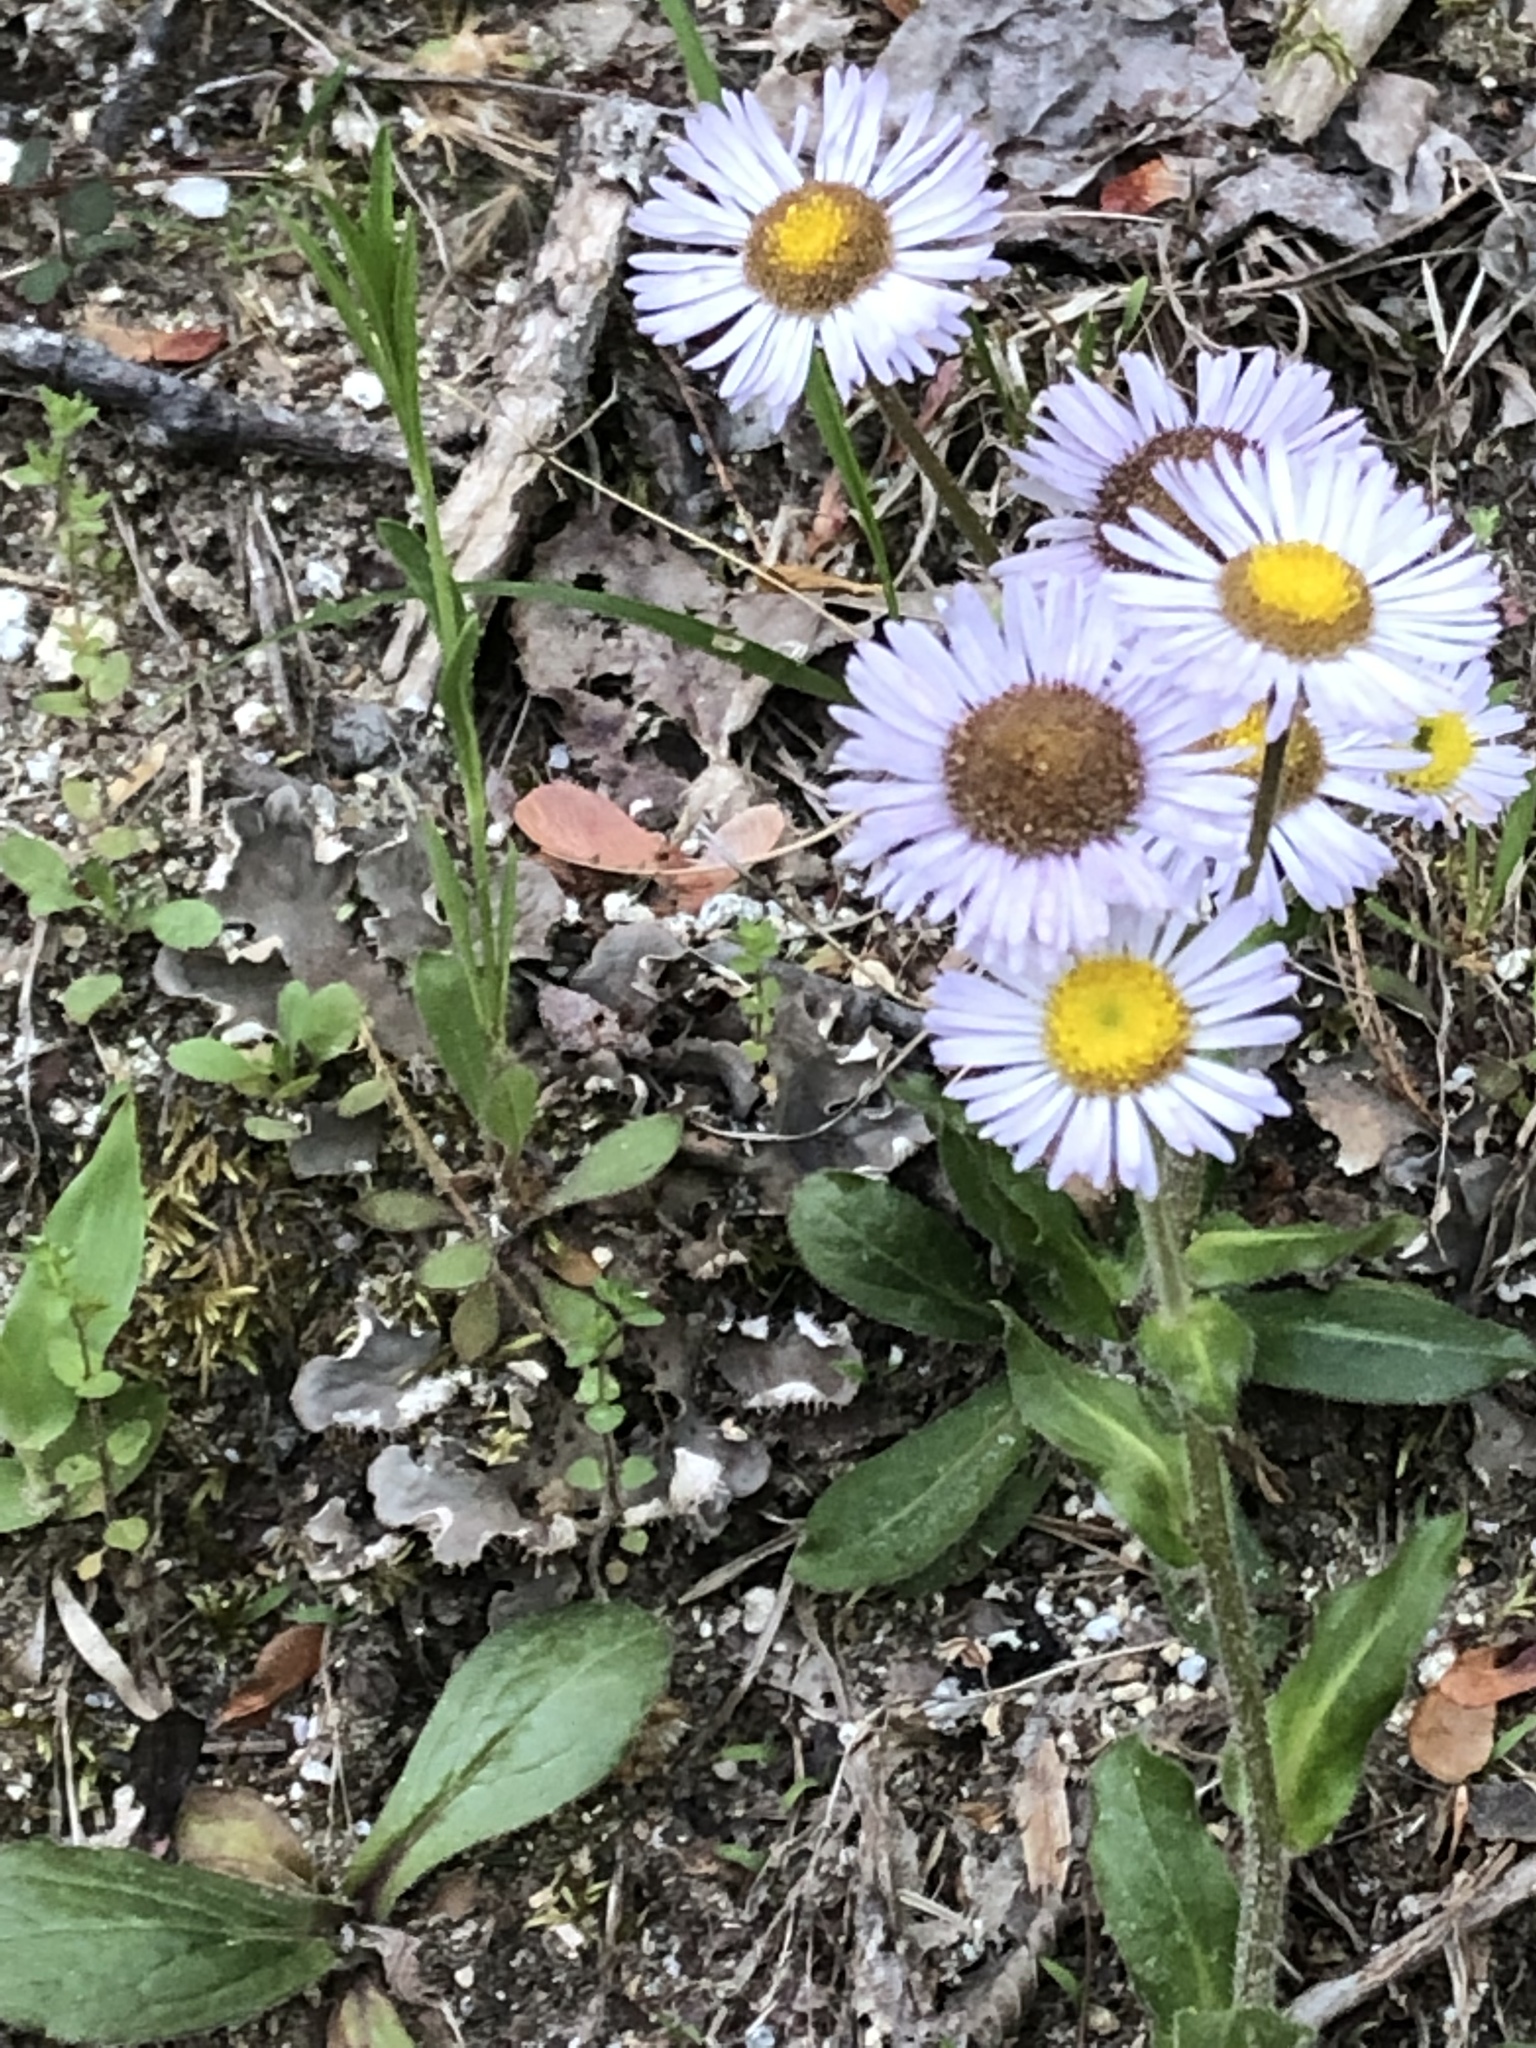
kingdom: Plantae
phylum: Tracheophyta
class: Magnoliopsida
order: Asterales
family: Asteraceae
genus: Erigeron
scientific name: Erigeron pulchellus
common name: Hairy fleabane
